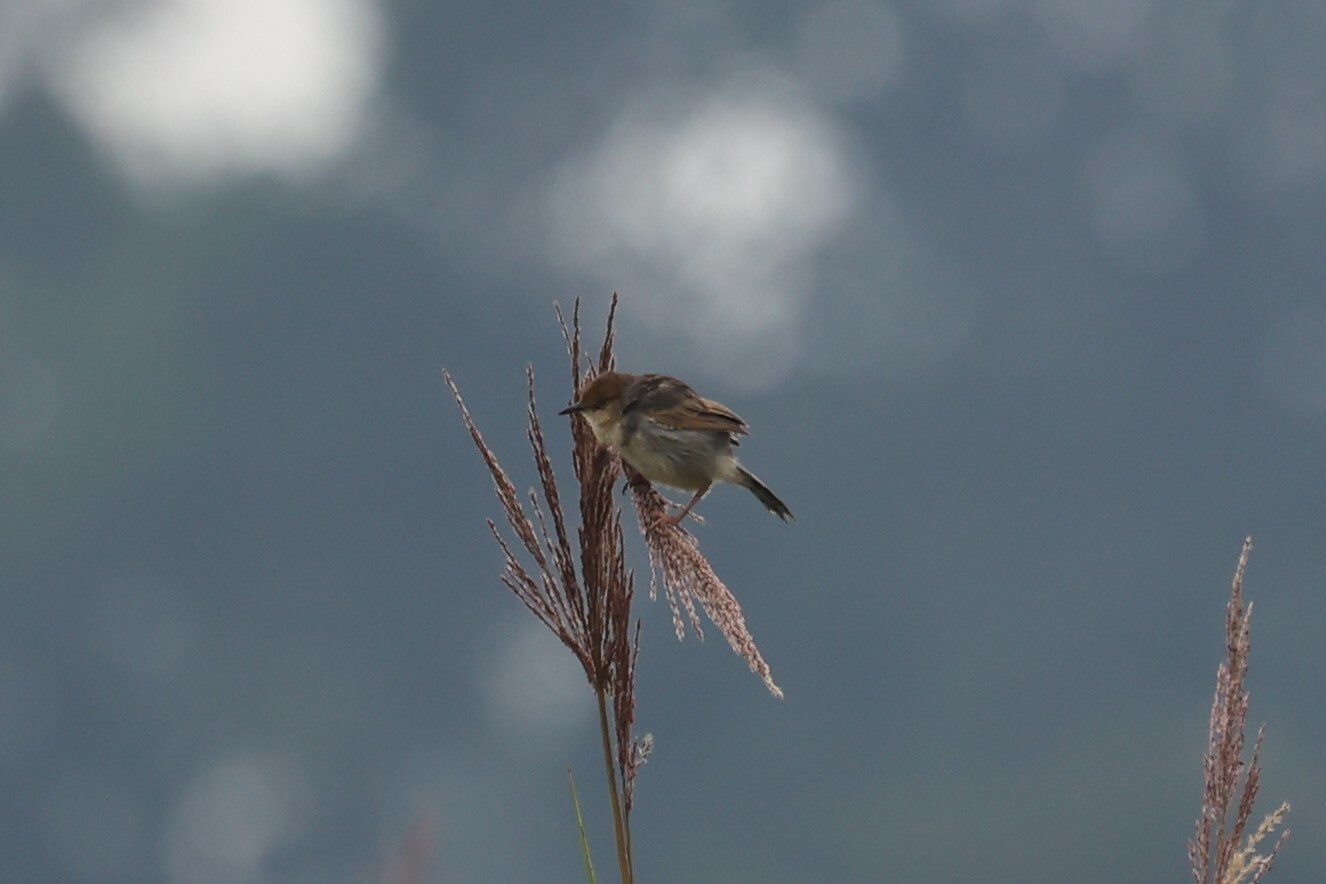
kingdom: Animalia
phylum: Chordata
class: Aves
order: Passeriformes
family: Cisticolidae
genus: Cisticola
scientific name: Cisticola marginatus
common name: Winding cisticola
